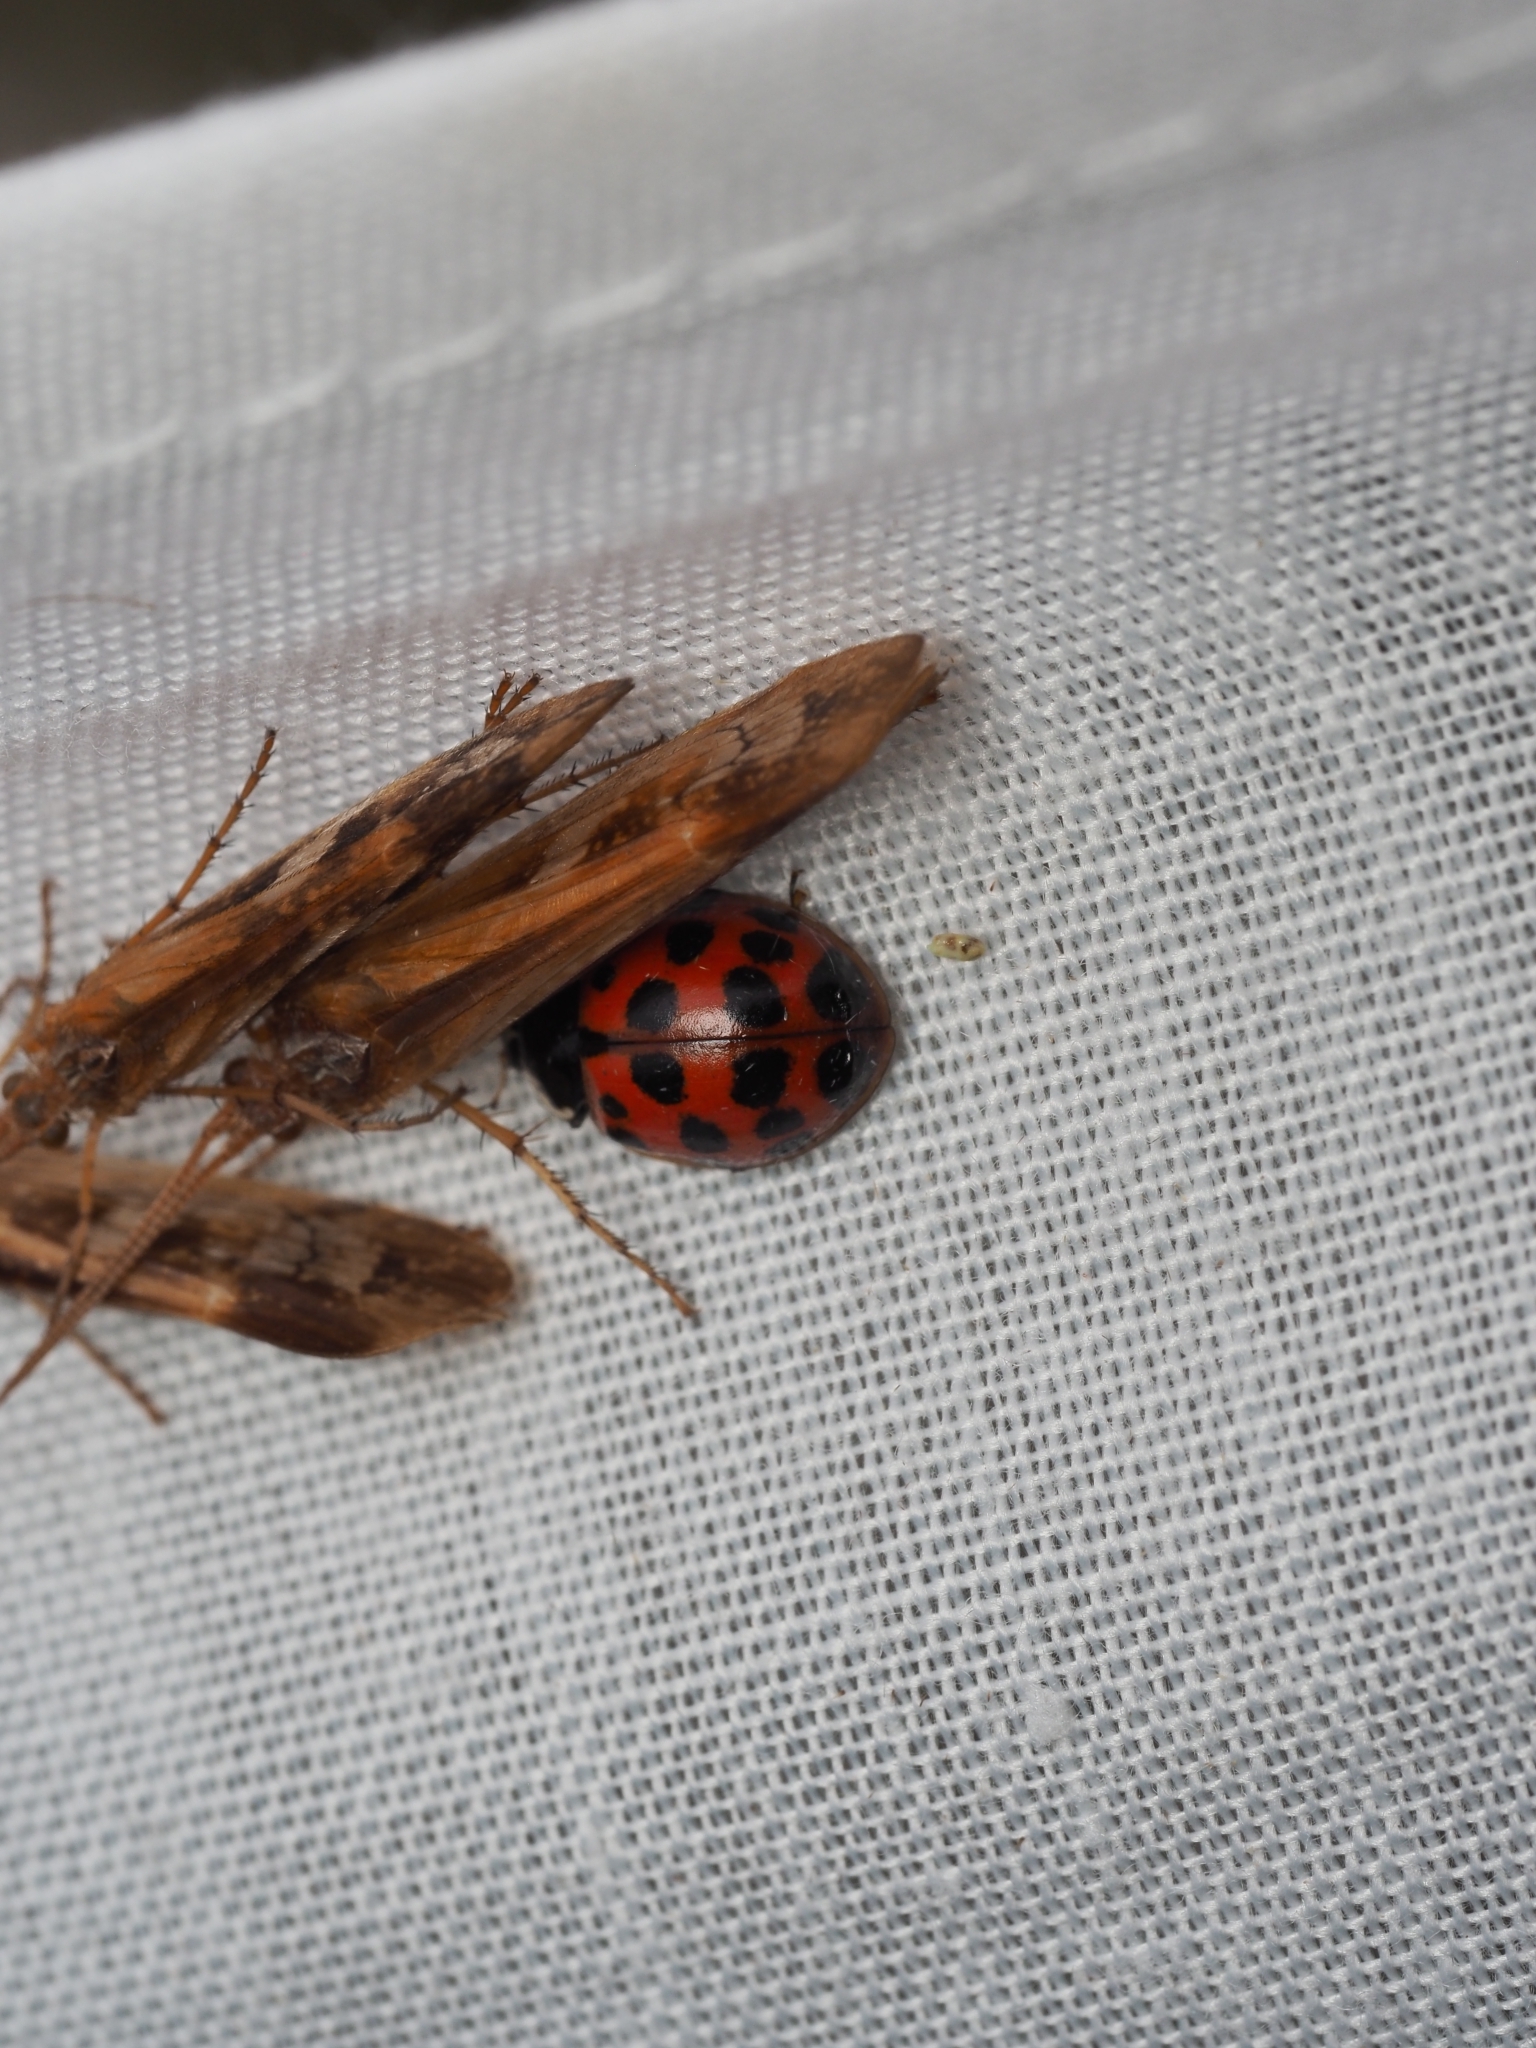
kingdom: Animalia
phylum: Arthropoda
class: Insecta
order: Coleoptera
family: Coccinellidae
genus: Harmonia
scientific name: Harmonia axyridis
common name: Harlequin ladybird
